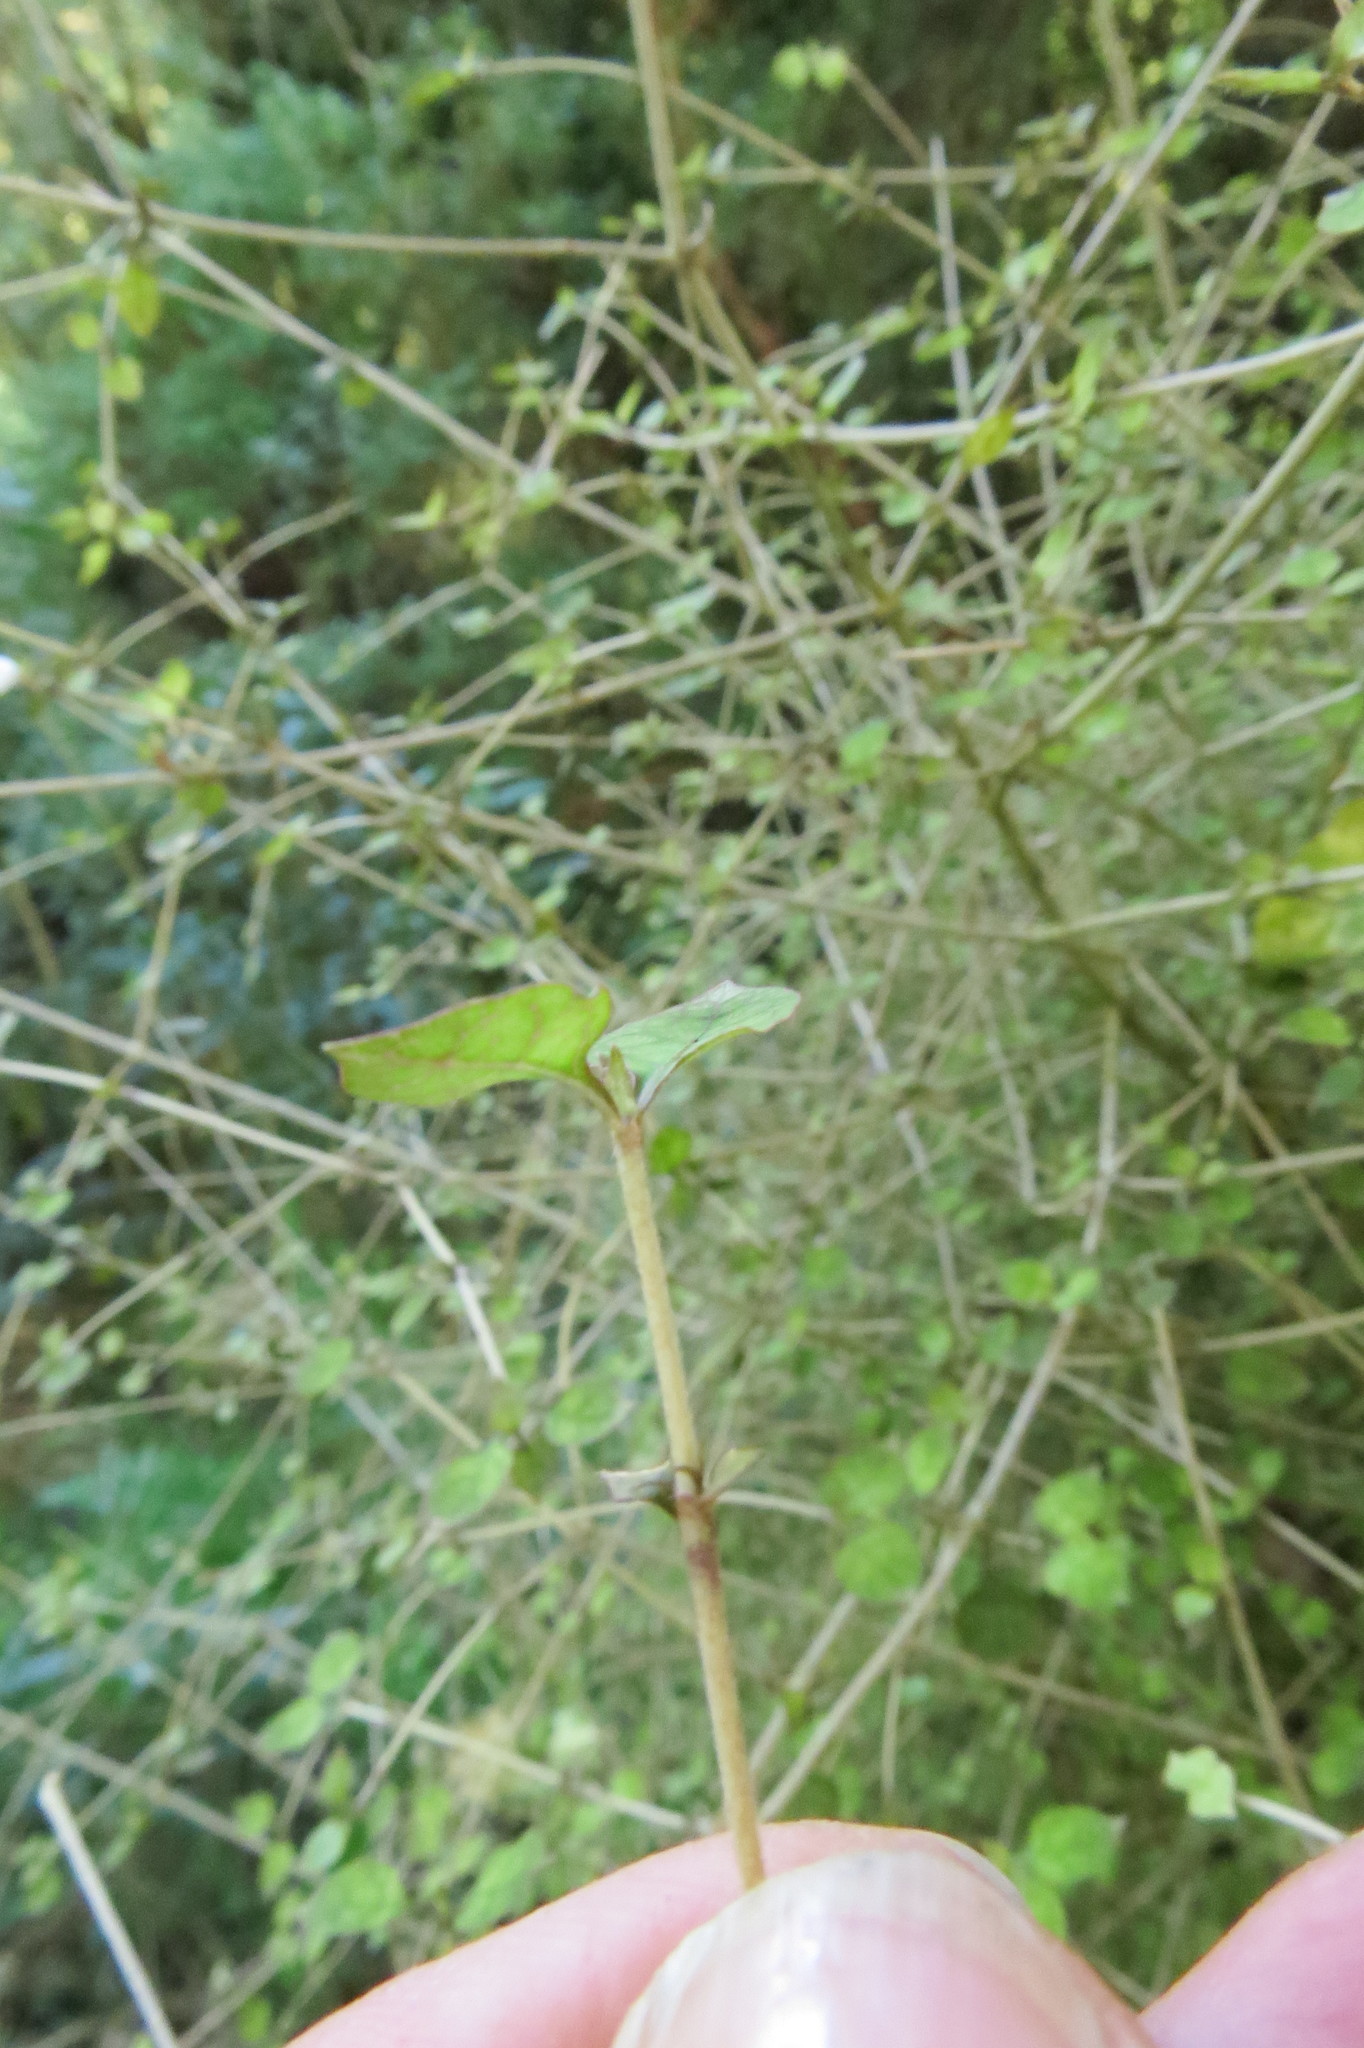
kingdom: Plantae
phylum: Tracheophyta
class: Magnoliopsida
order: Gentianales
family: Rubiaceae
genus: Coprosma
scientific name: Coprosma areolata
